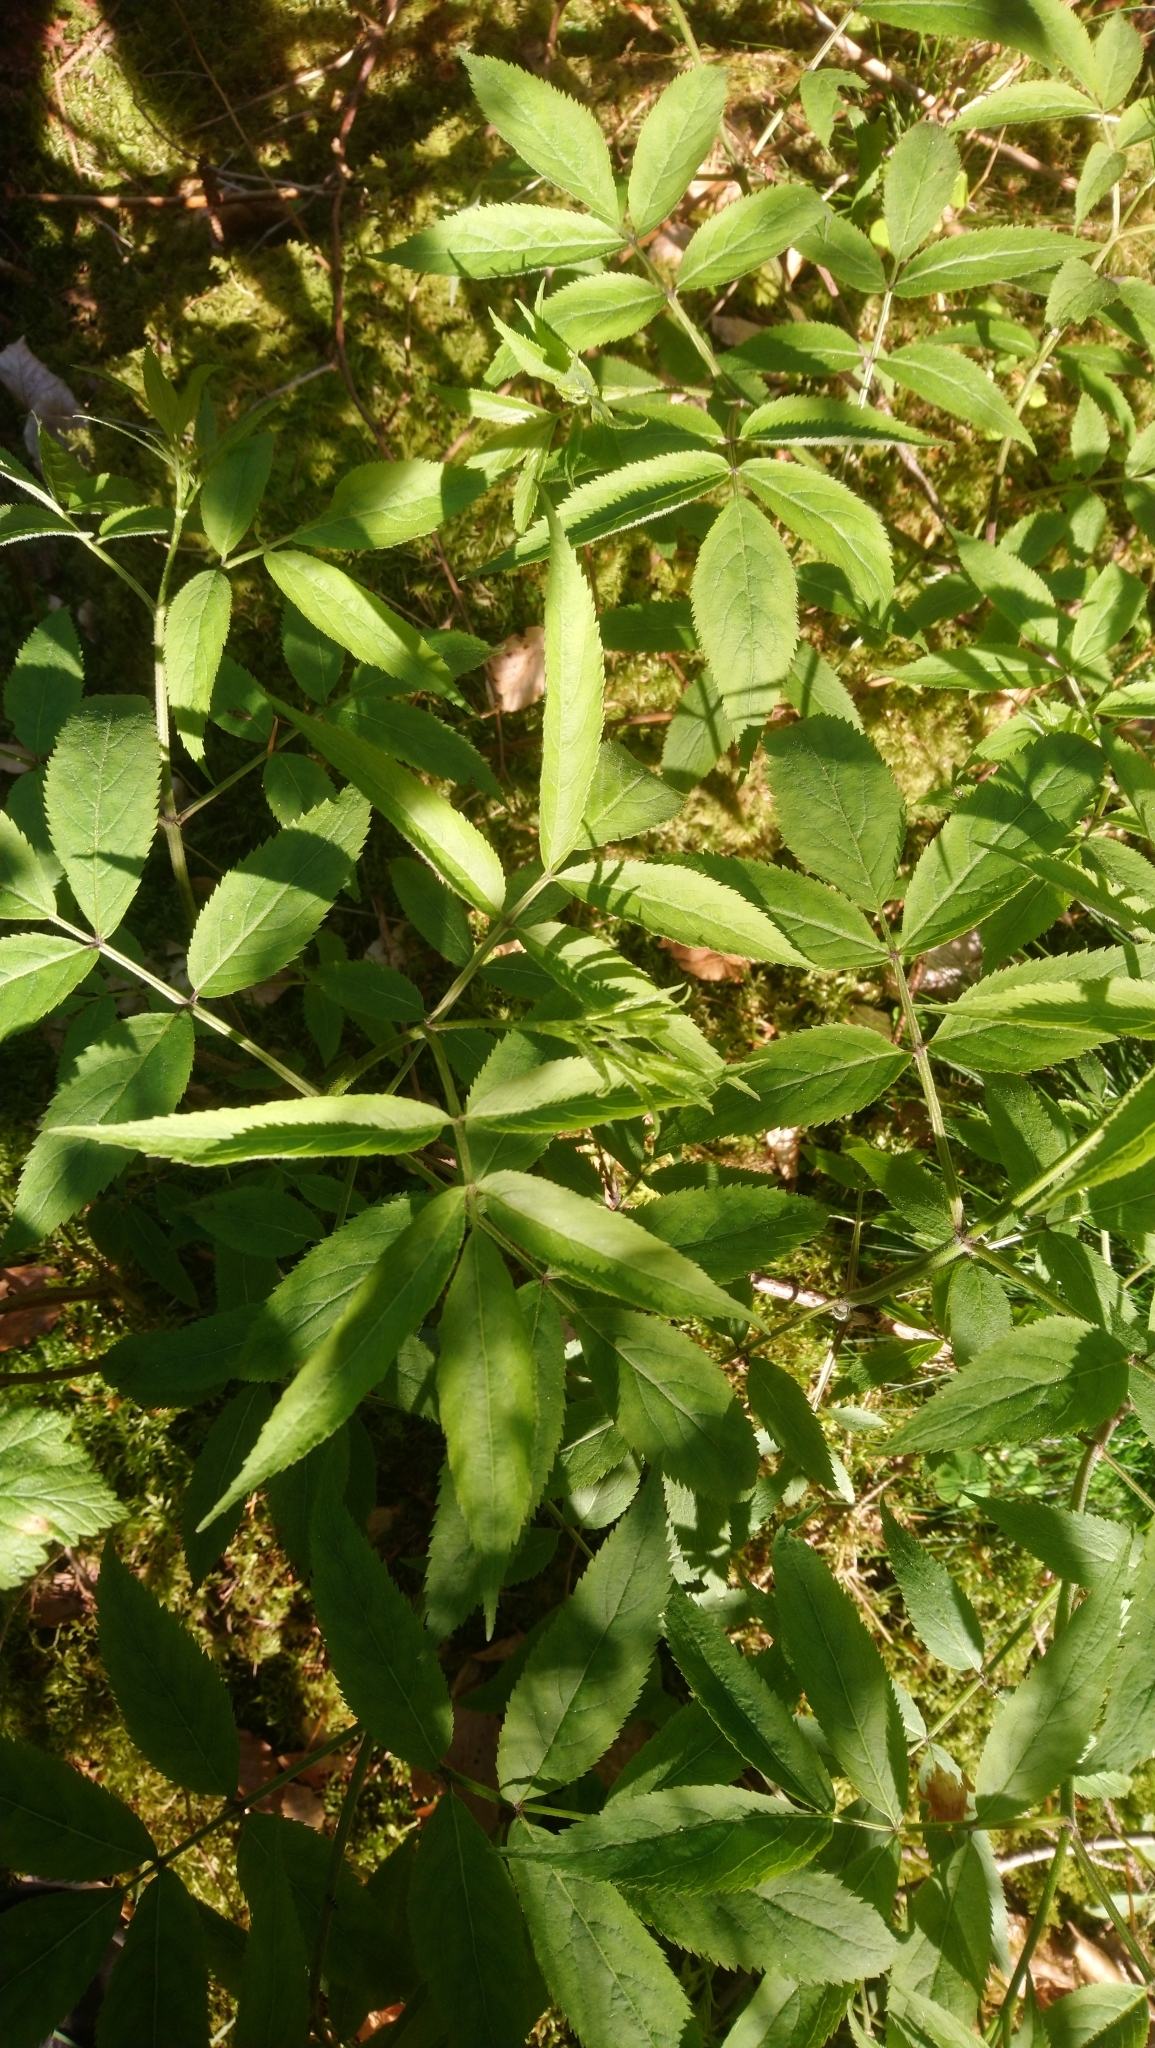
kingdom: Plantae
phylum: Tracheophyta
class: Magnoliopsida
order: Dipsacales
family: Viburnaceae
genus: Sambucus
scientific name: Sambucus racemosa
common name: Red-berried elder
